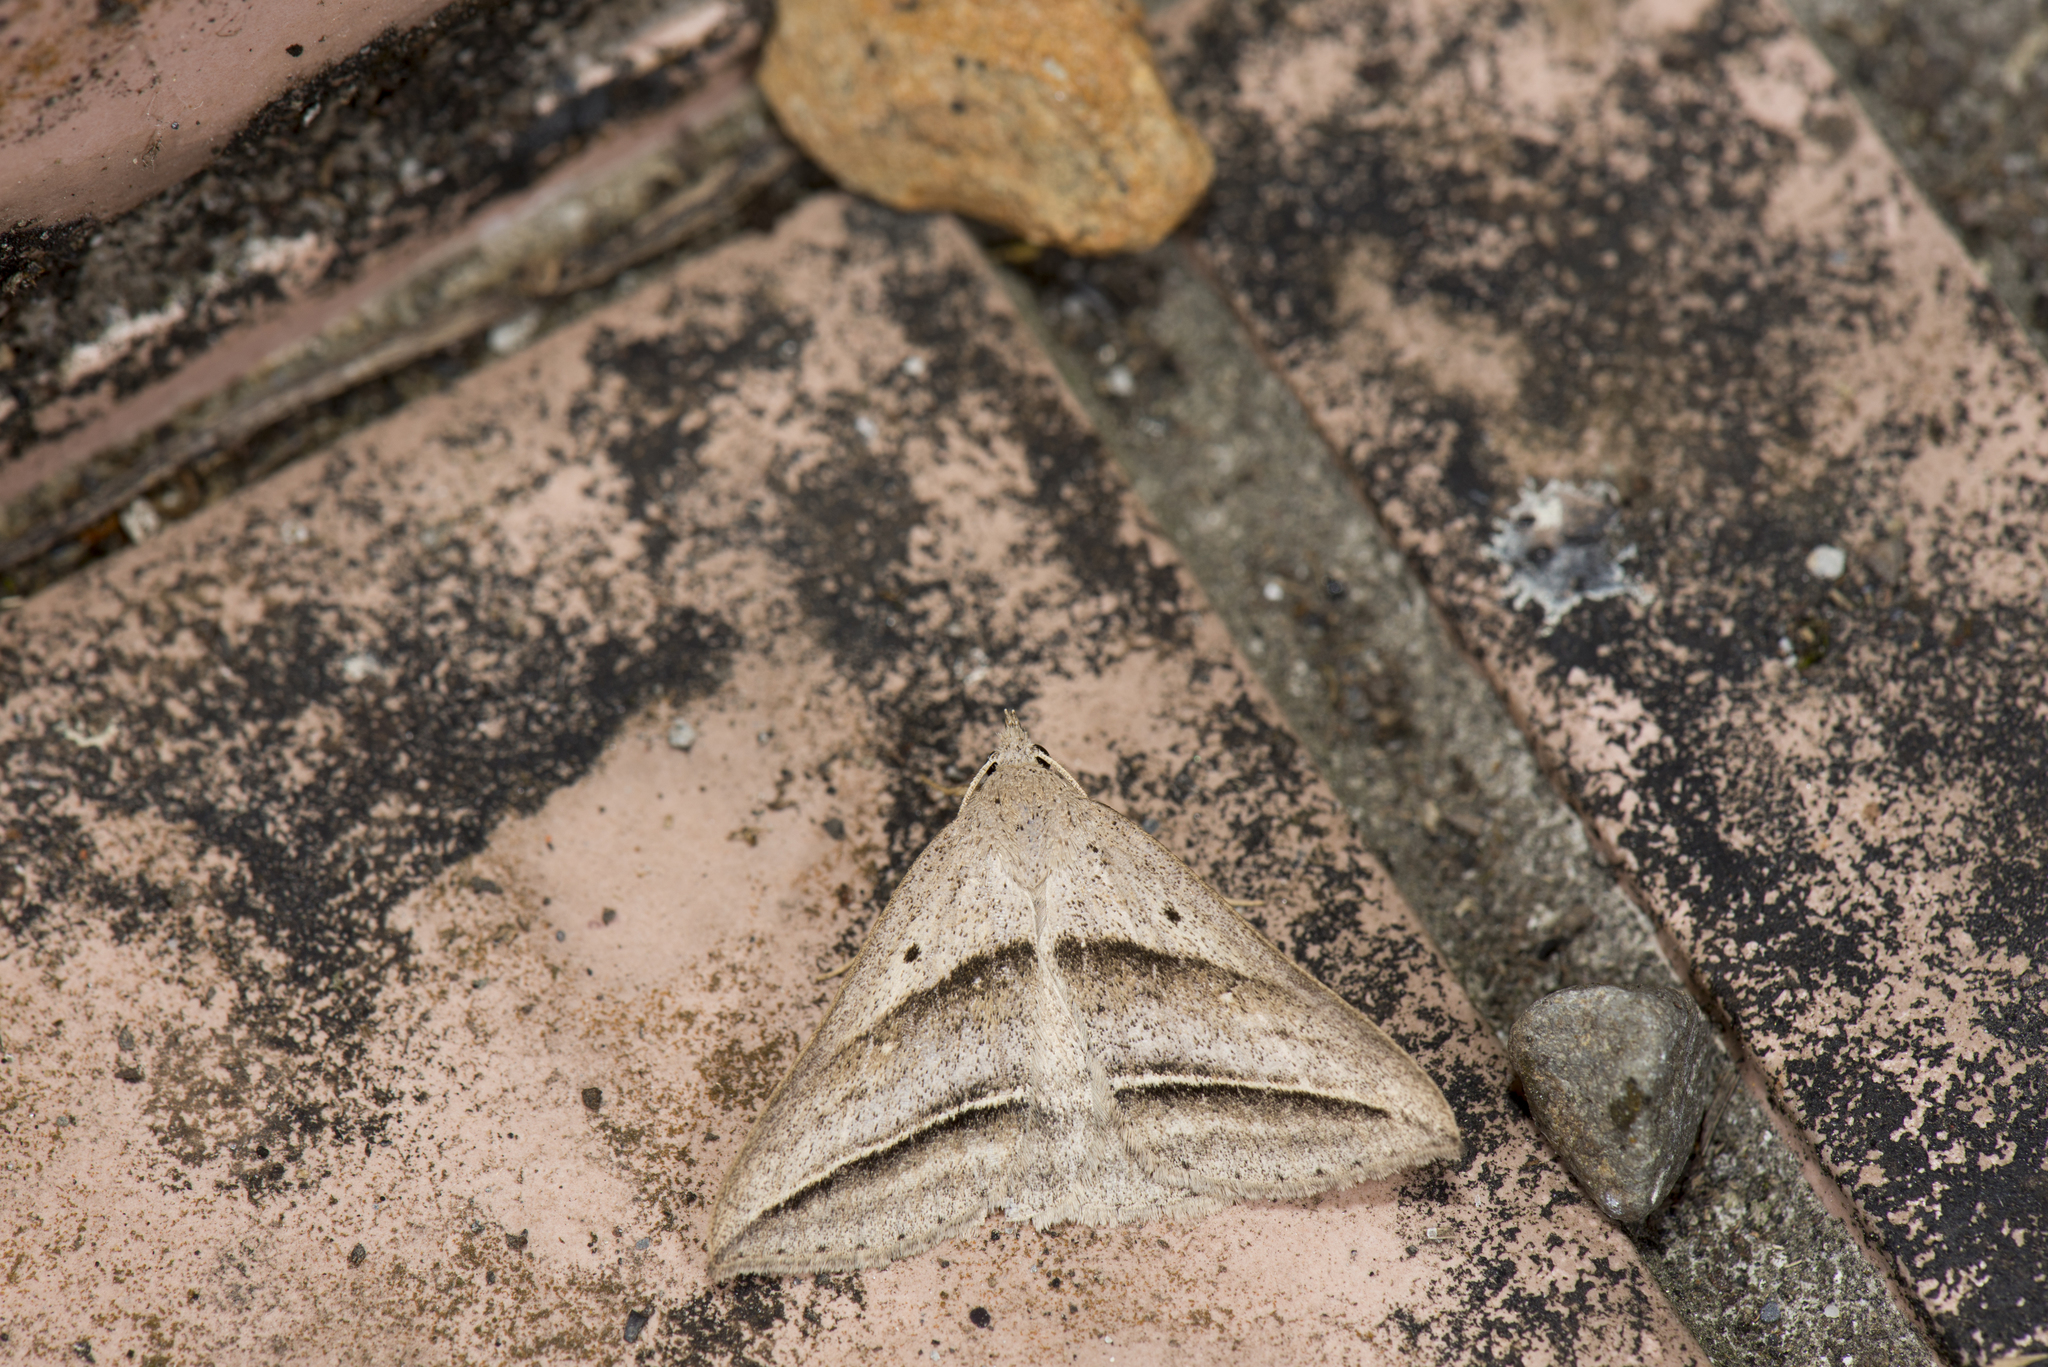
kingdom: Animalia
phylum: Arthropoda
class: Insecta
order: Lepidoptera
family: Erebidae
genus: Blasticorhinus
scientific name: Blasticorhinus bifasciata
